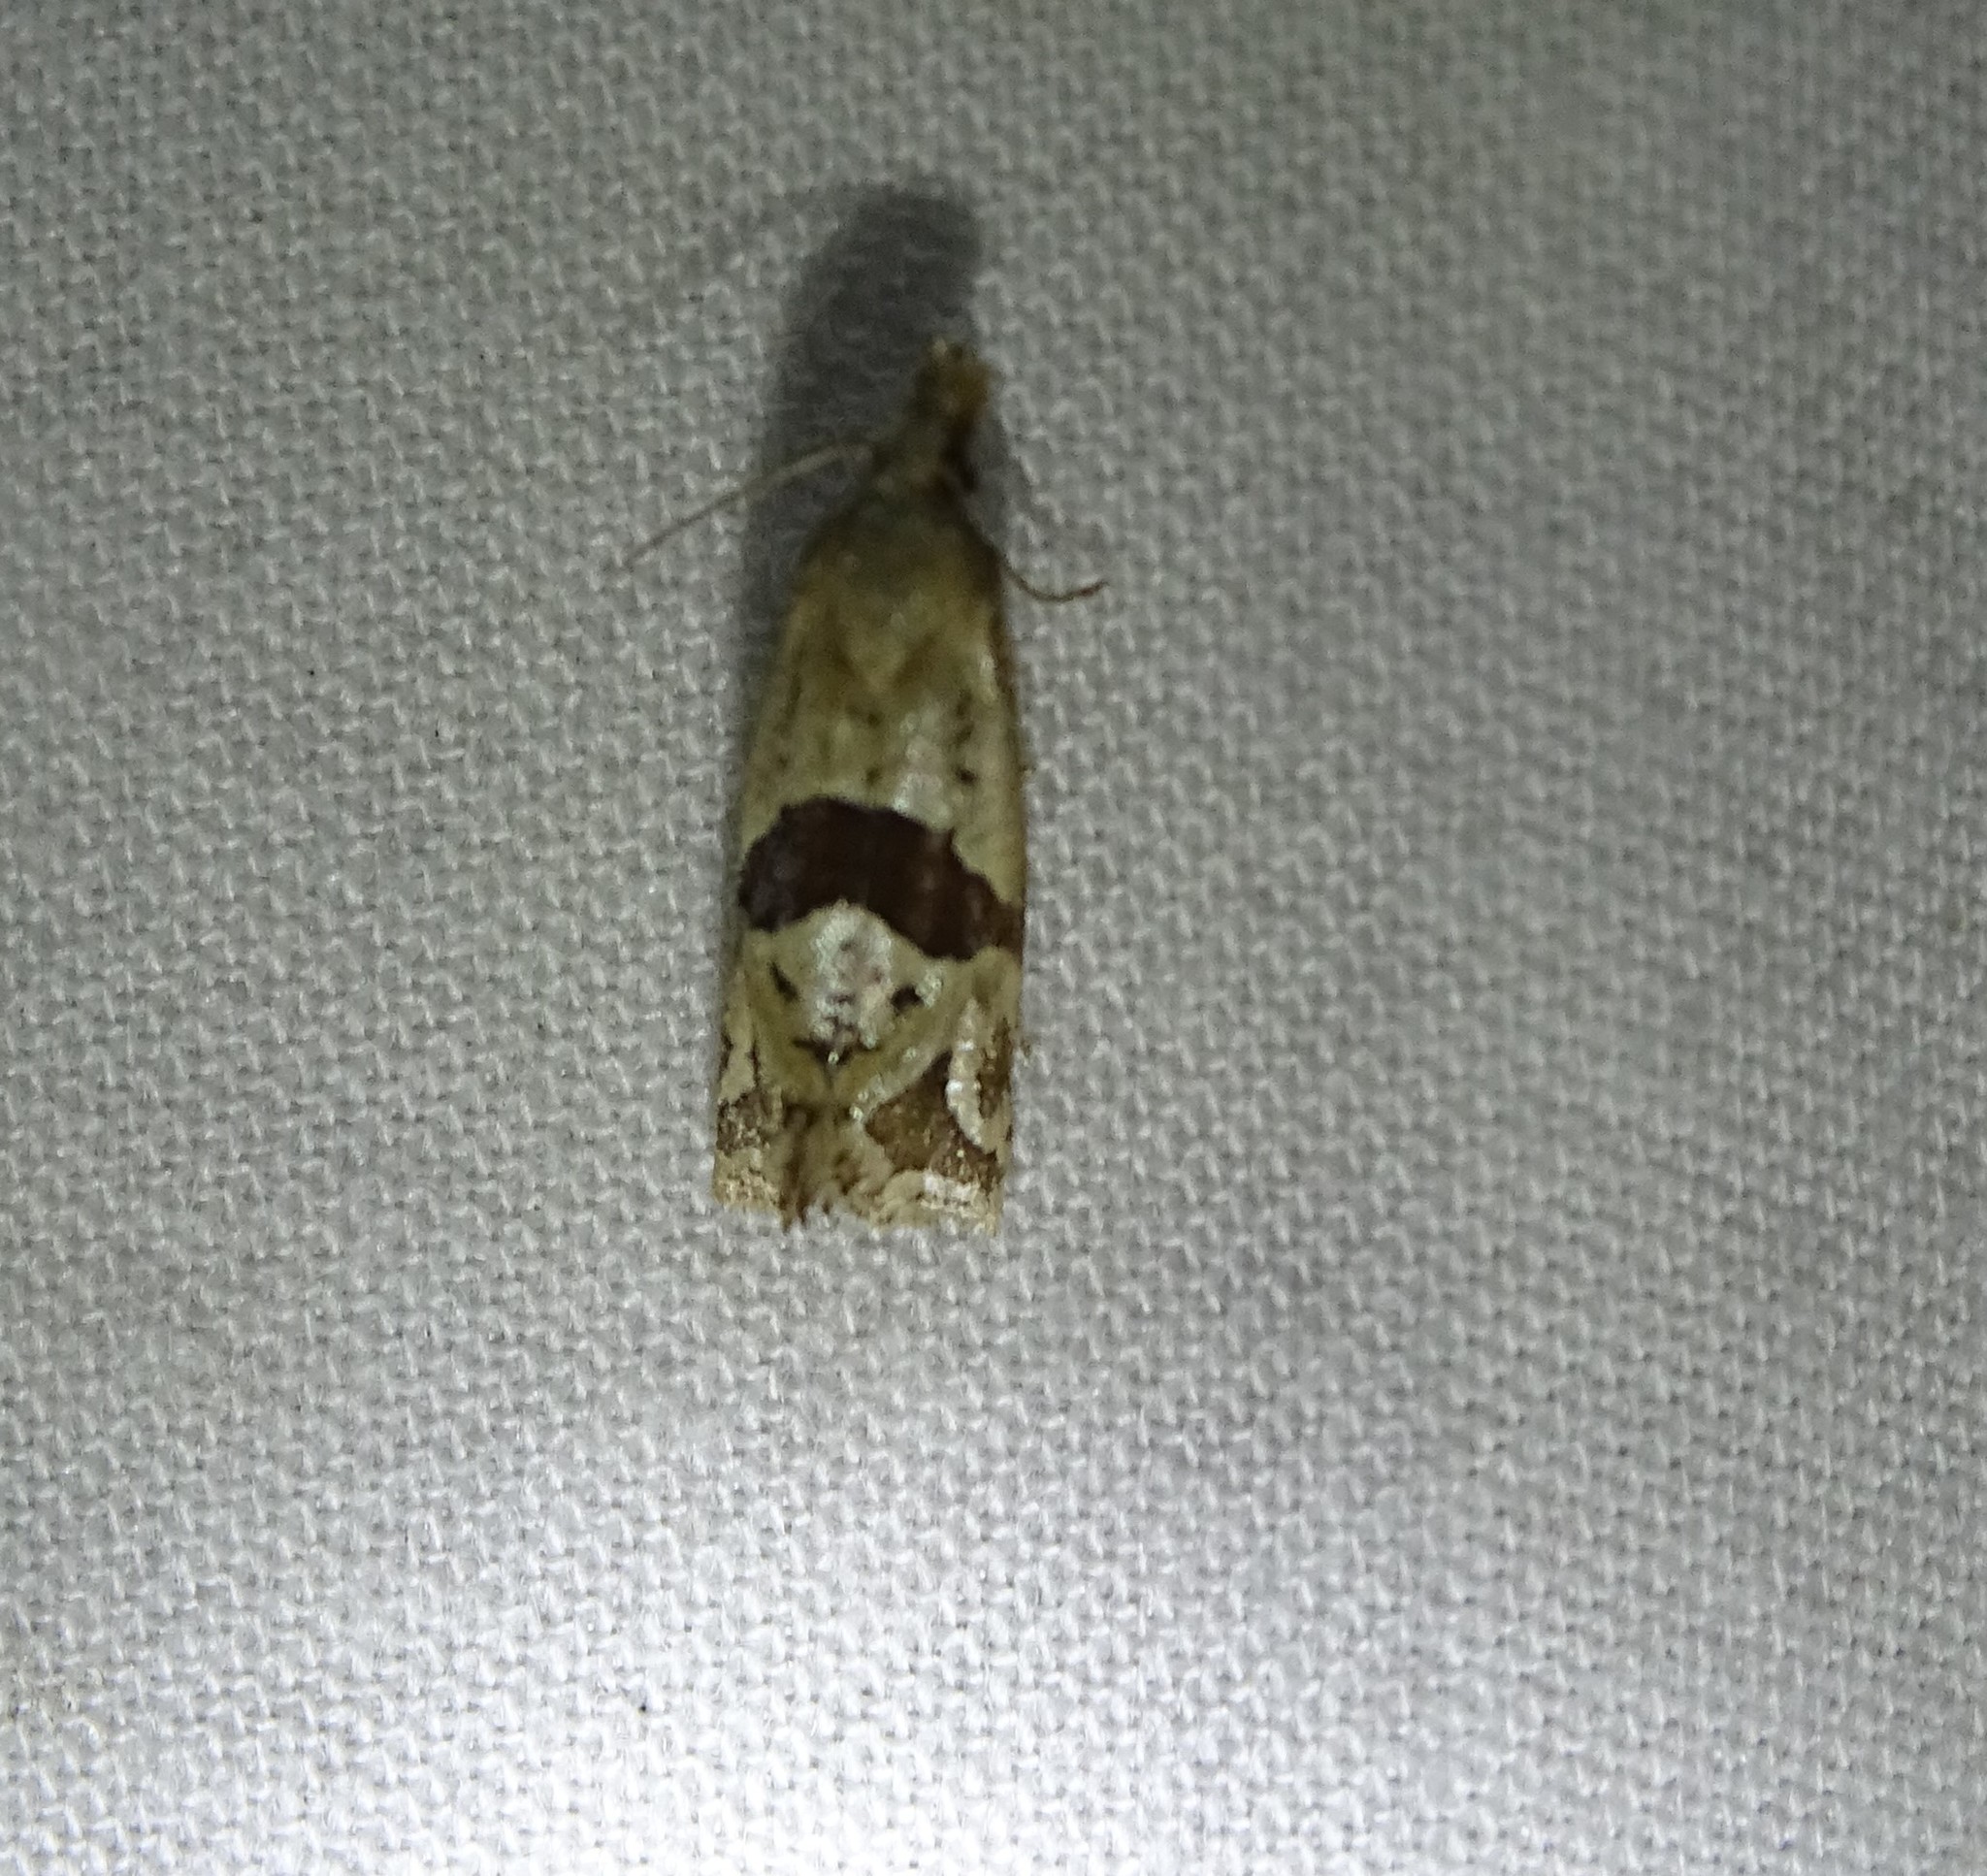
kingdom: Animalia
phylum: Arthropoda
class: Insecta
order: Lepidoptera
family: Tortricidae
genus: Eugnosta
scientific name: Eugnosta sartana
